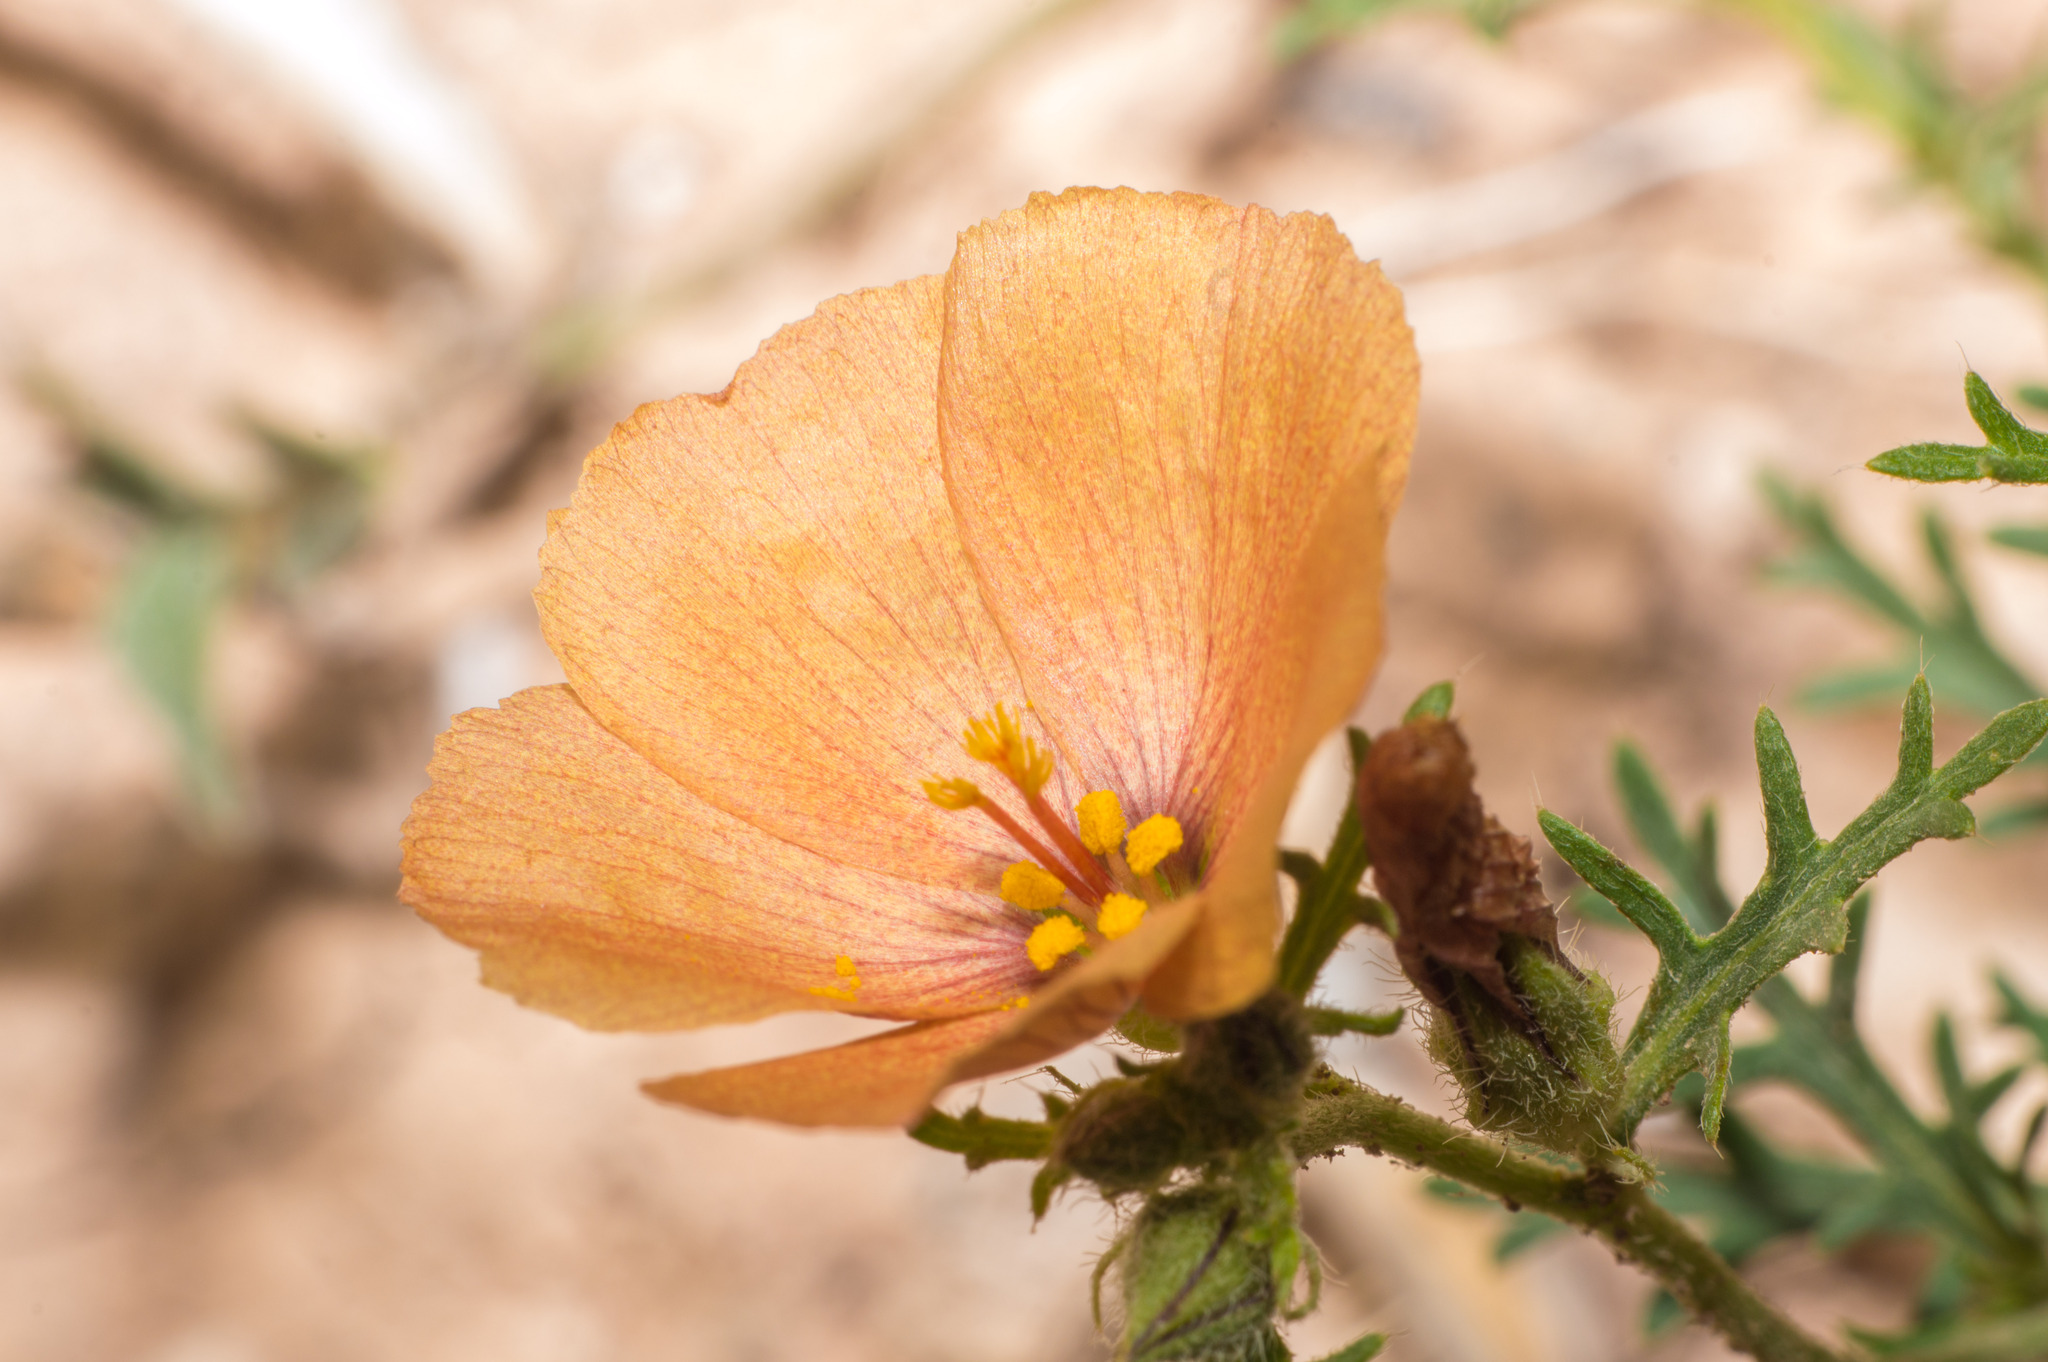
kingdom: Plantae
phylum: Tracheophyta
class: Magnoliopsida
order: Malpighiales
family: Turneraceae
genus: Turnera
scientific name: Turnera sidoides
